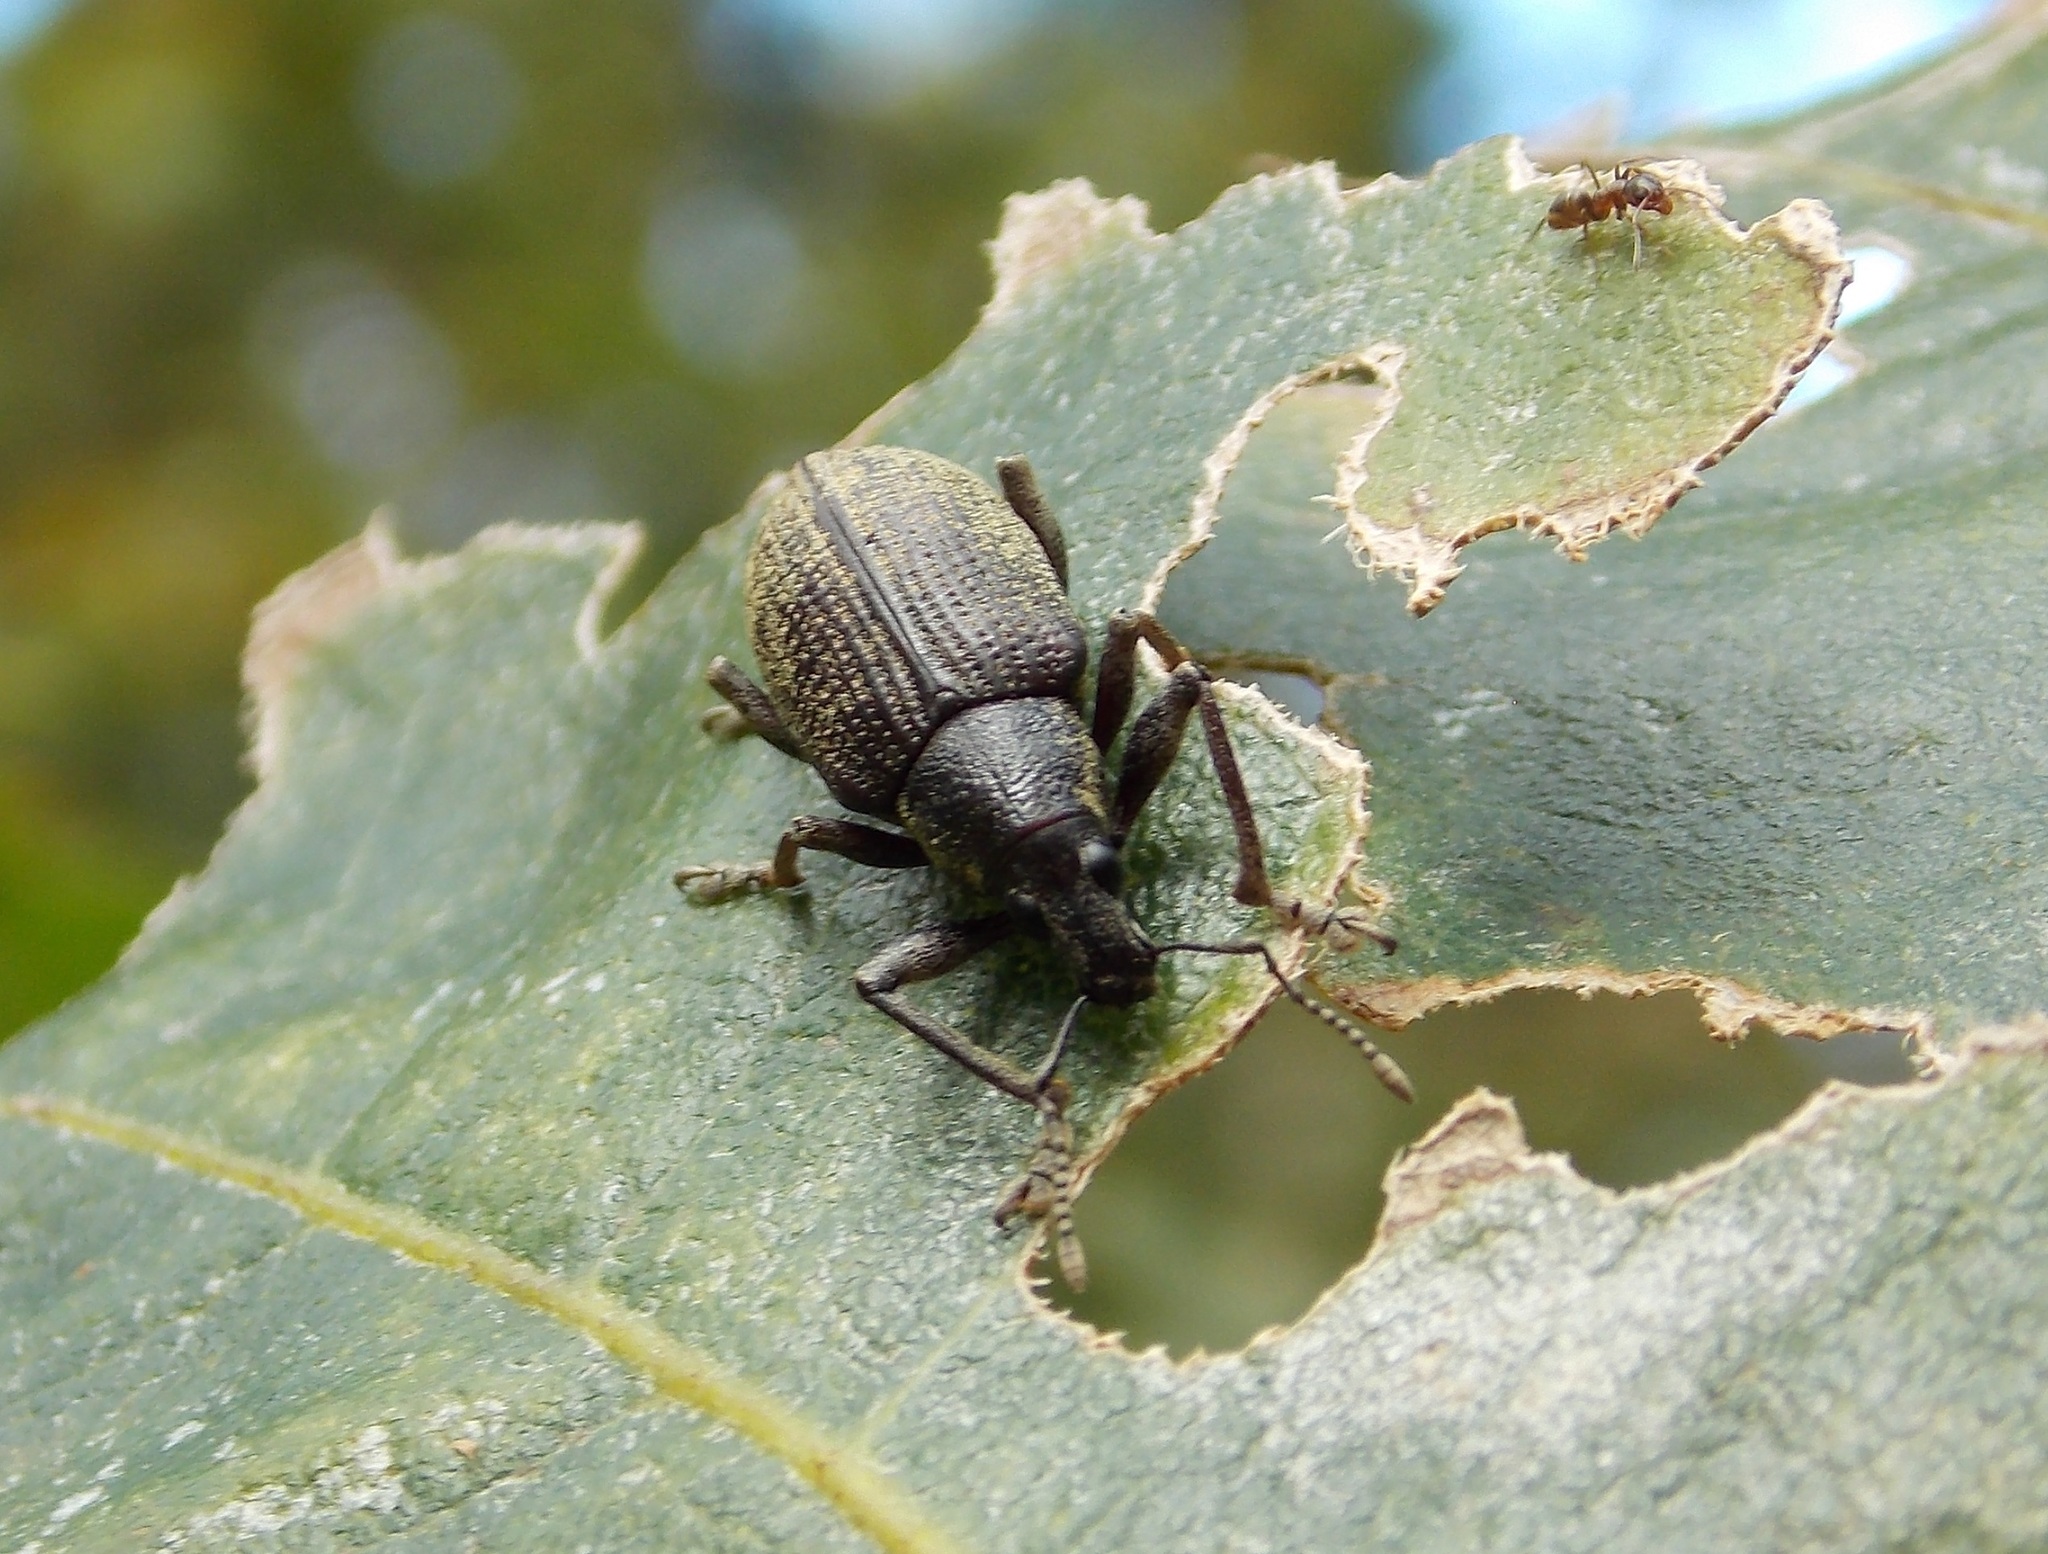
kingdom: Animalia
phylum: Arthropoda
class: Insecta
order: Coleoptera
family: Curculionidae
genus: Diaprepes
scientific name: Diaprepes famelicus
